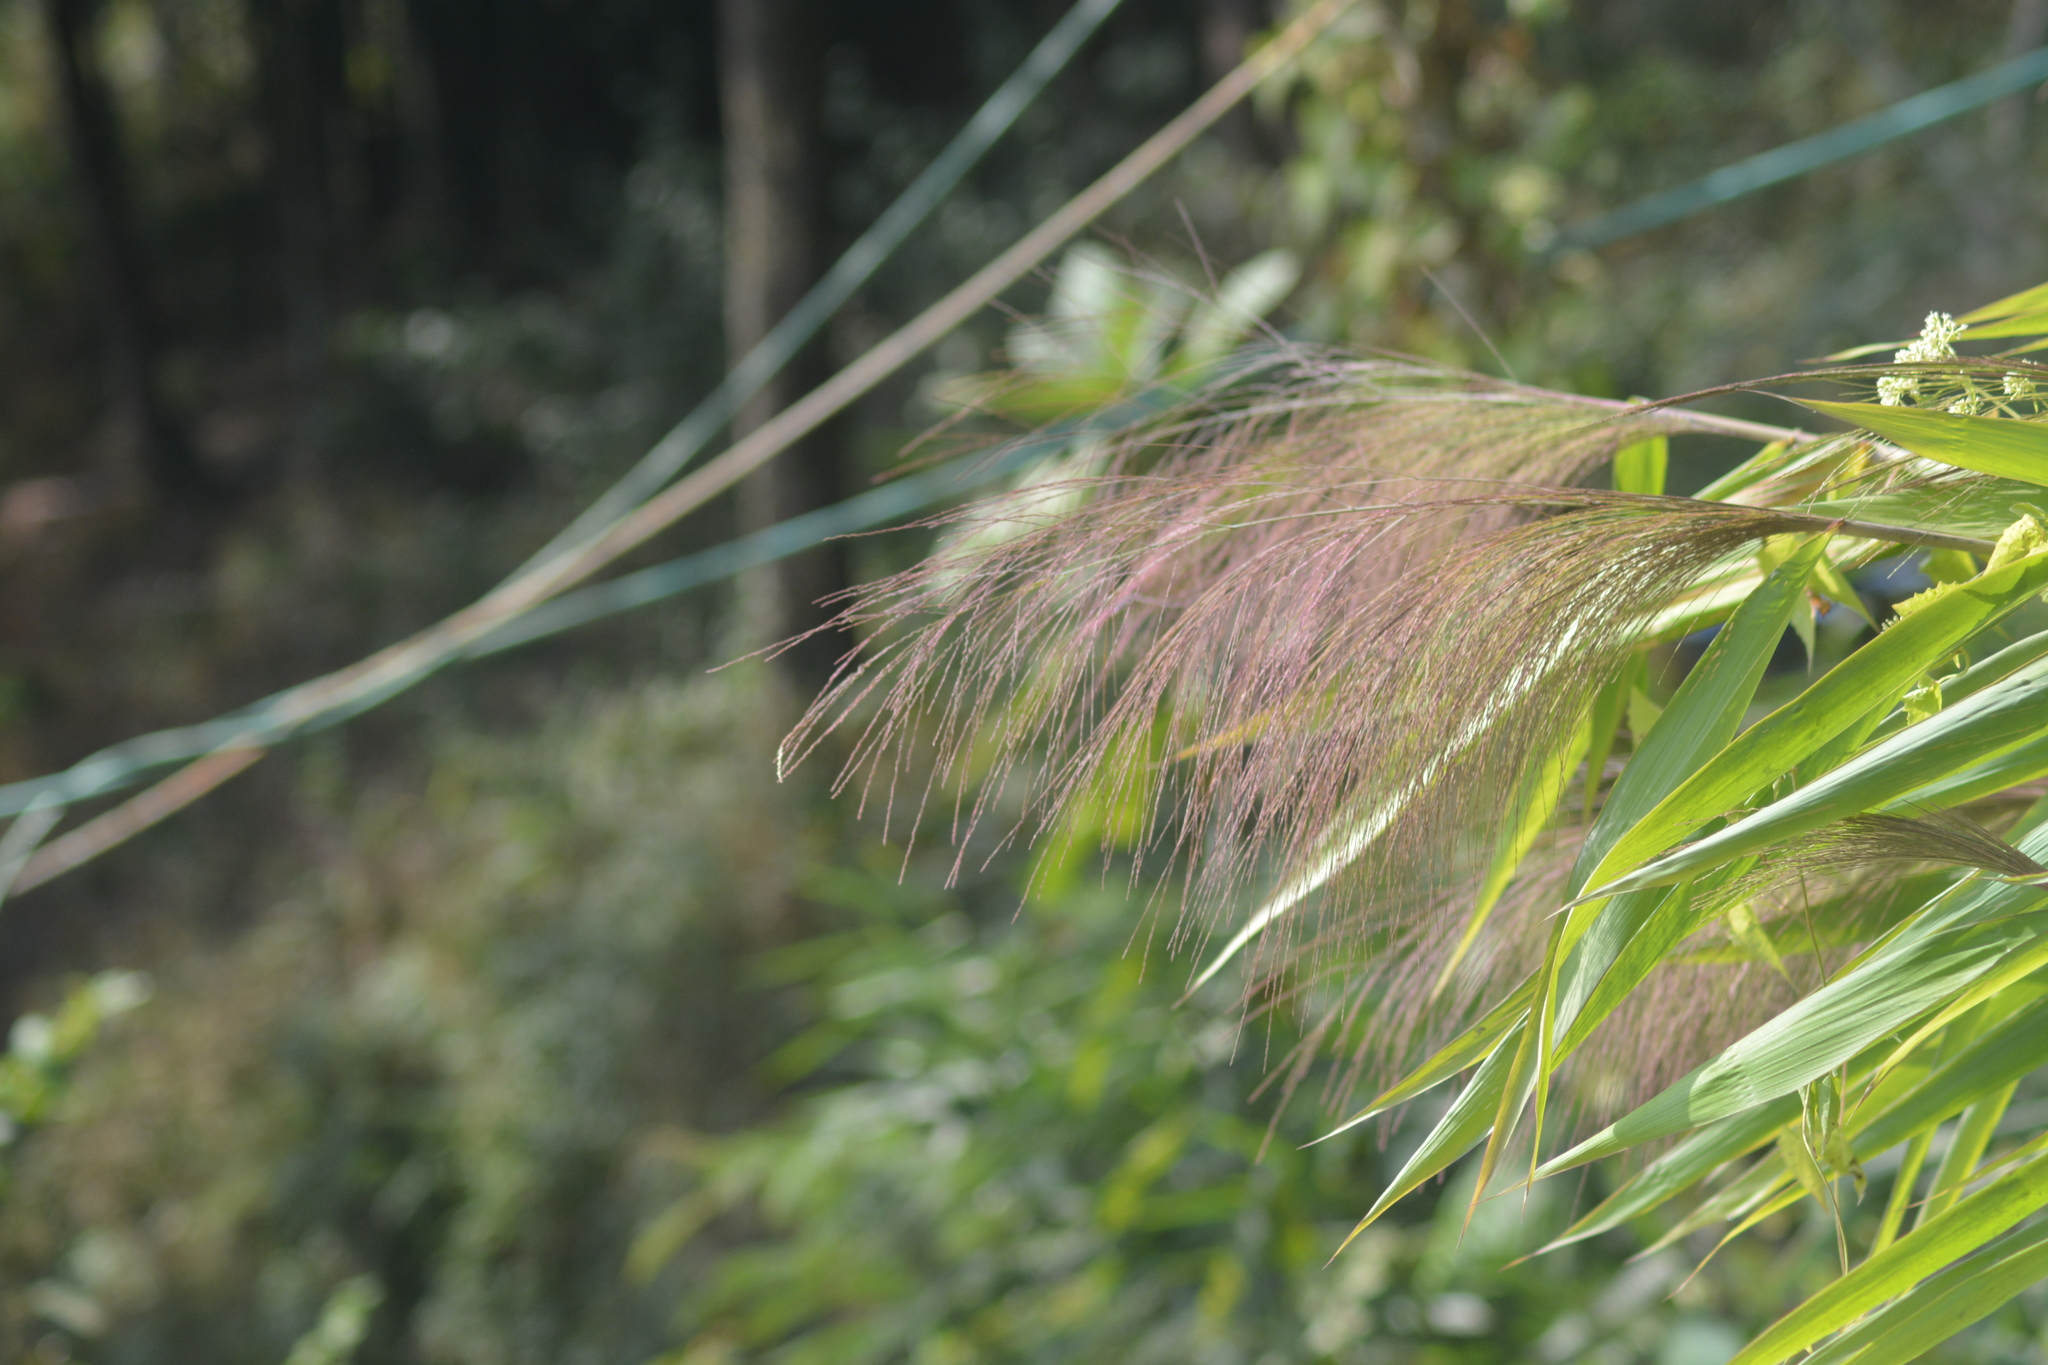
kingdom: Plantae
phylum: Tracheophyta
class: Liliopsida
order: Poales
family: Poaceae
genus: Thysanolaena
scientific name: Thysanolaena latifolia
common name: Tiger grass
